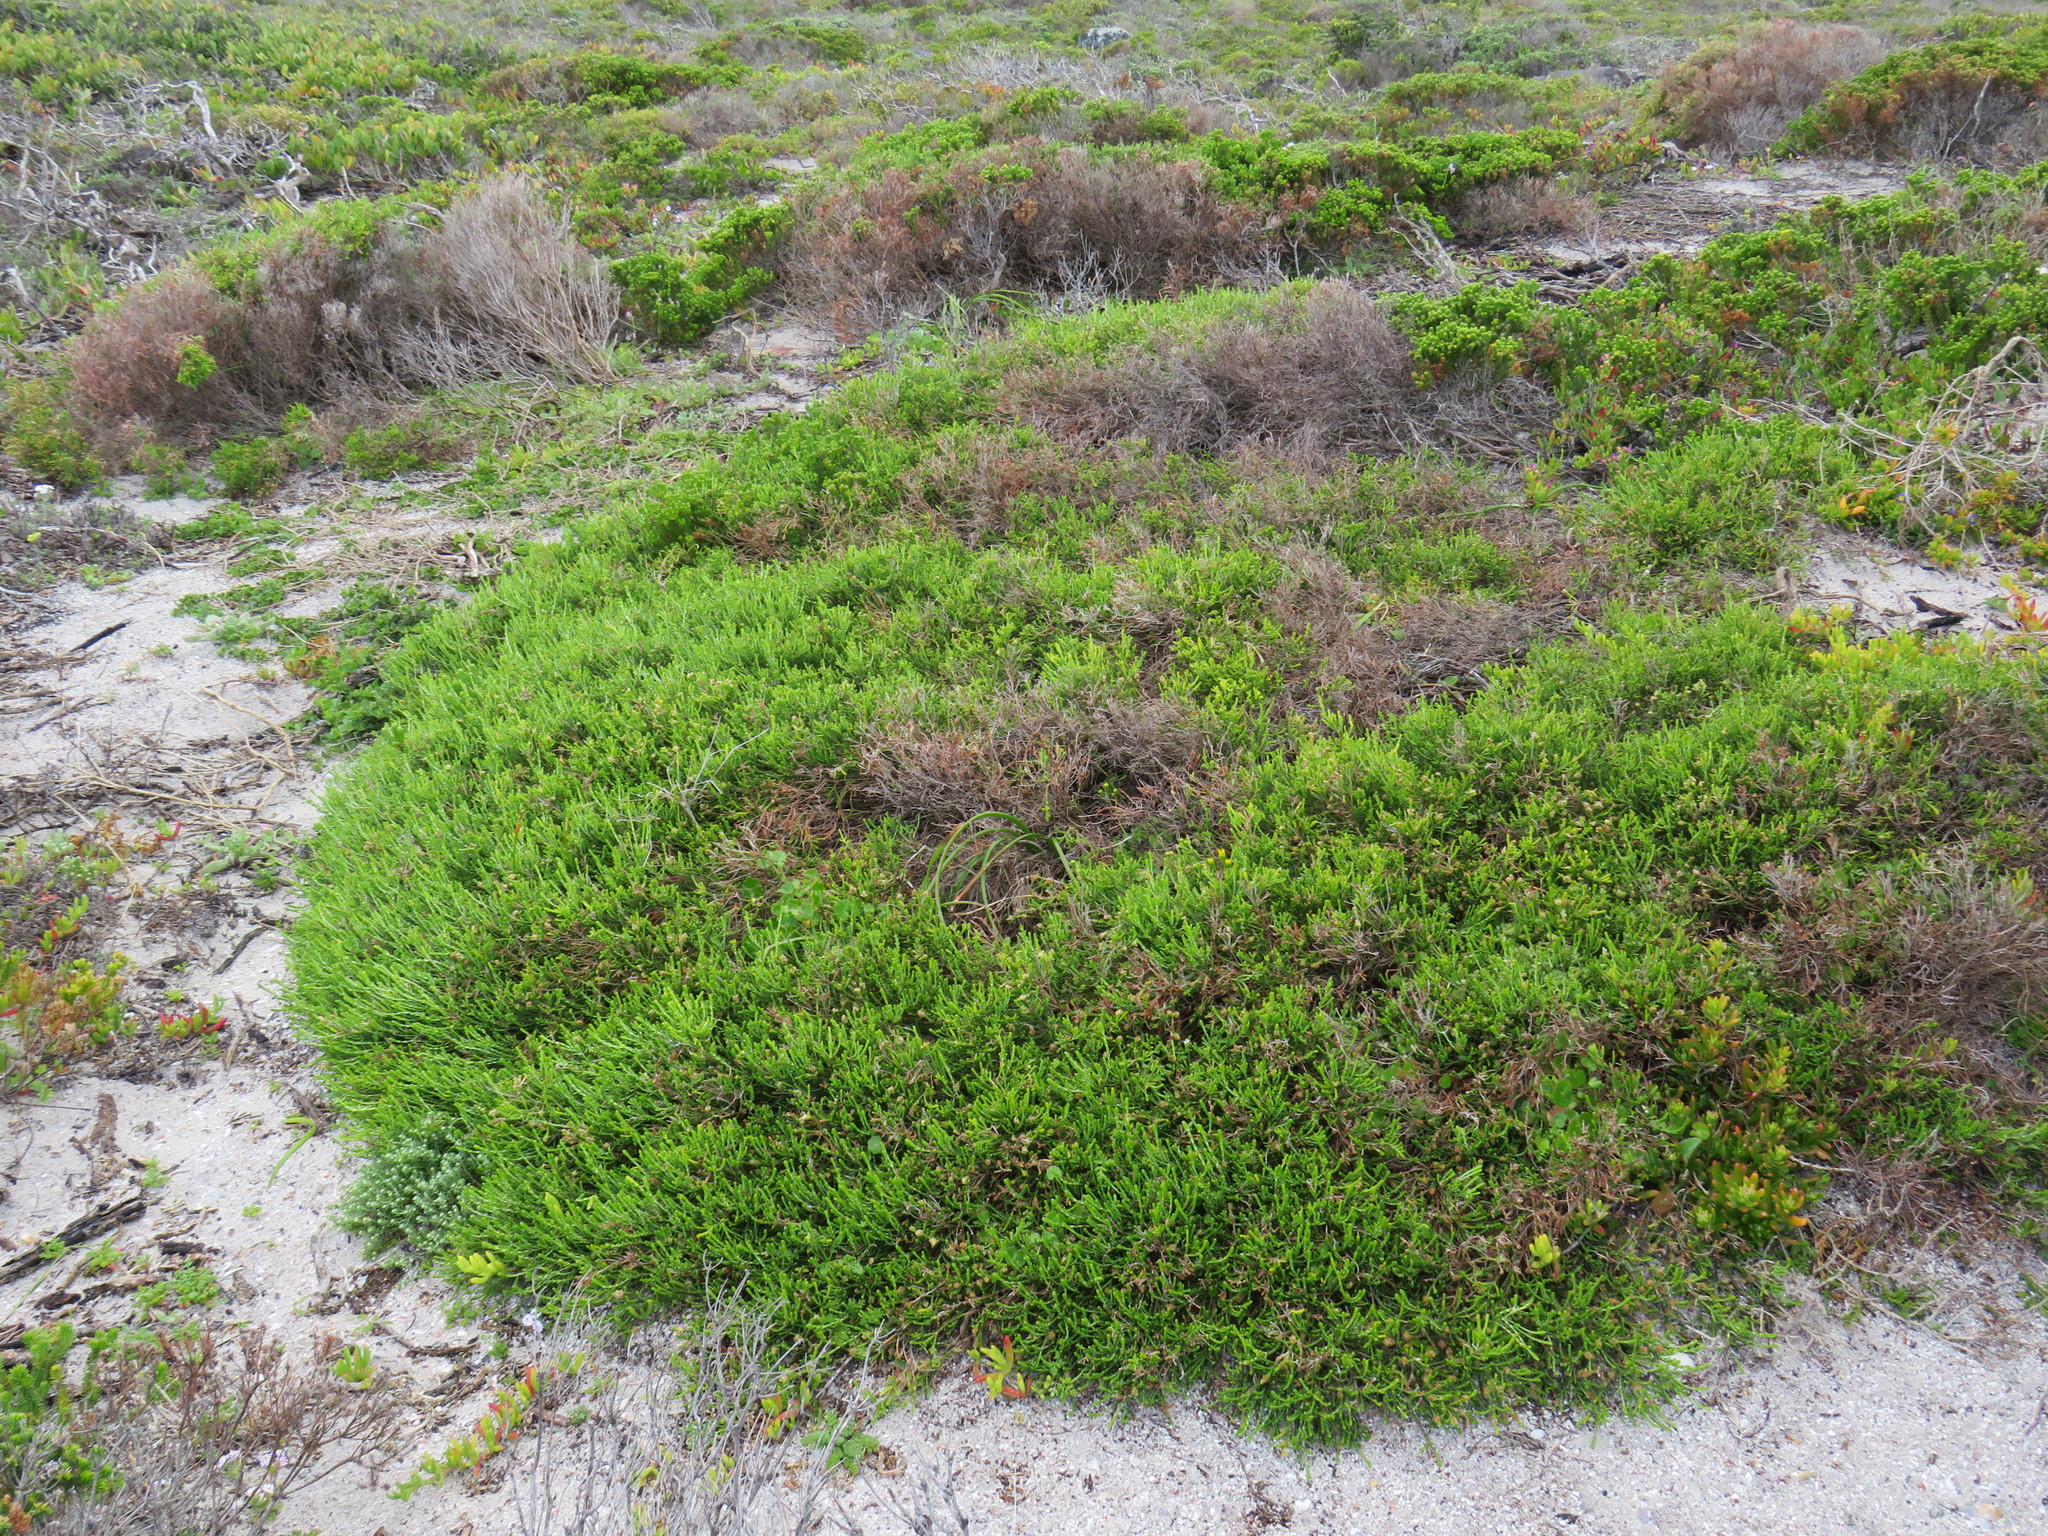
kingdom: Plantae
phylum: Tracheophyta
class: Magnoliopsida
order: Malvales
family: Thymelaeaceae
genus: Passerina
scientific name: Passerina paleacea
